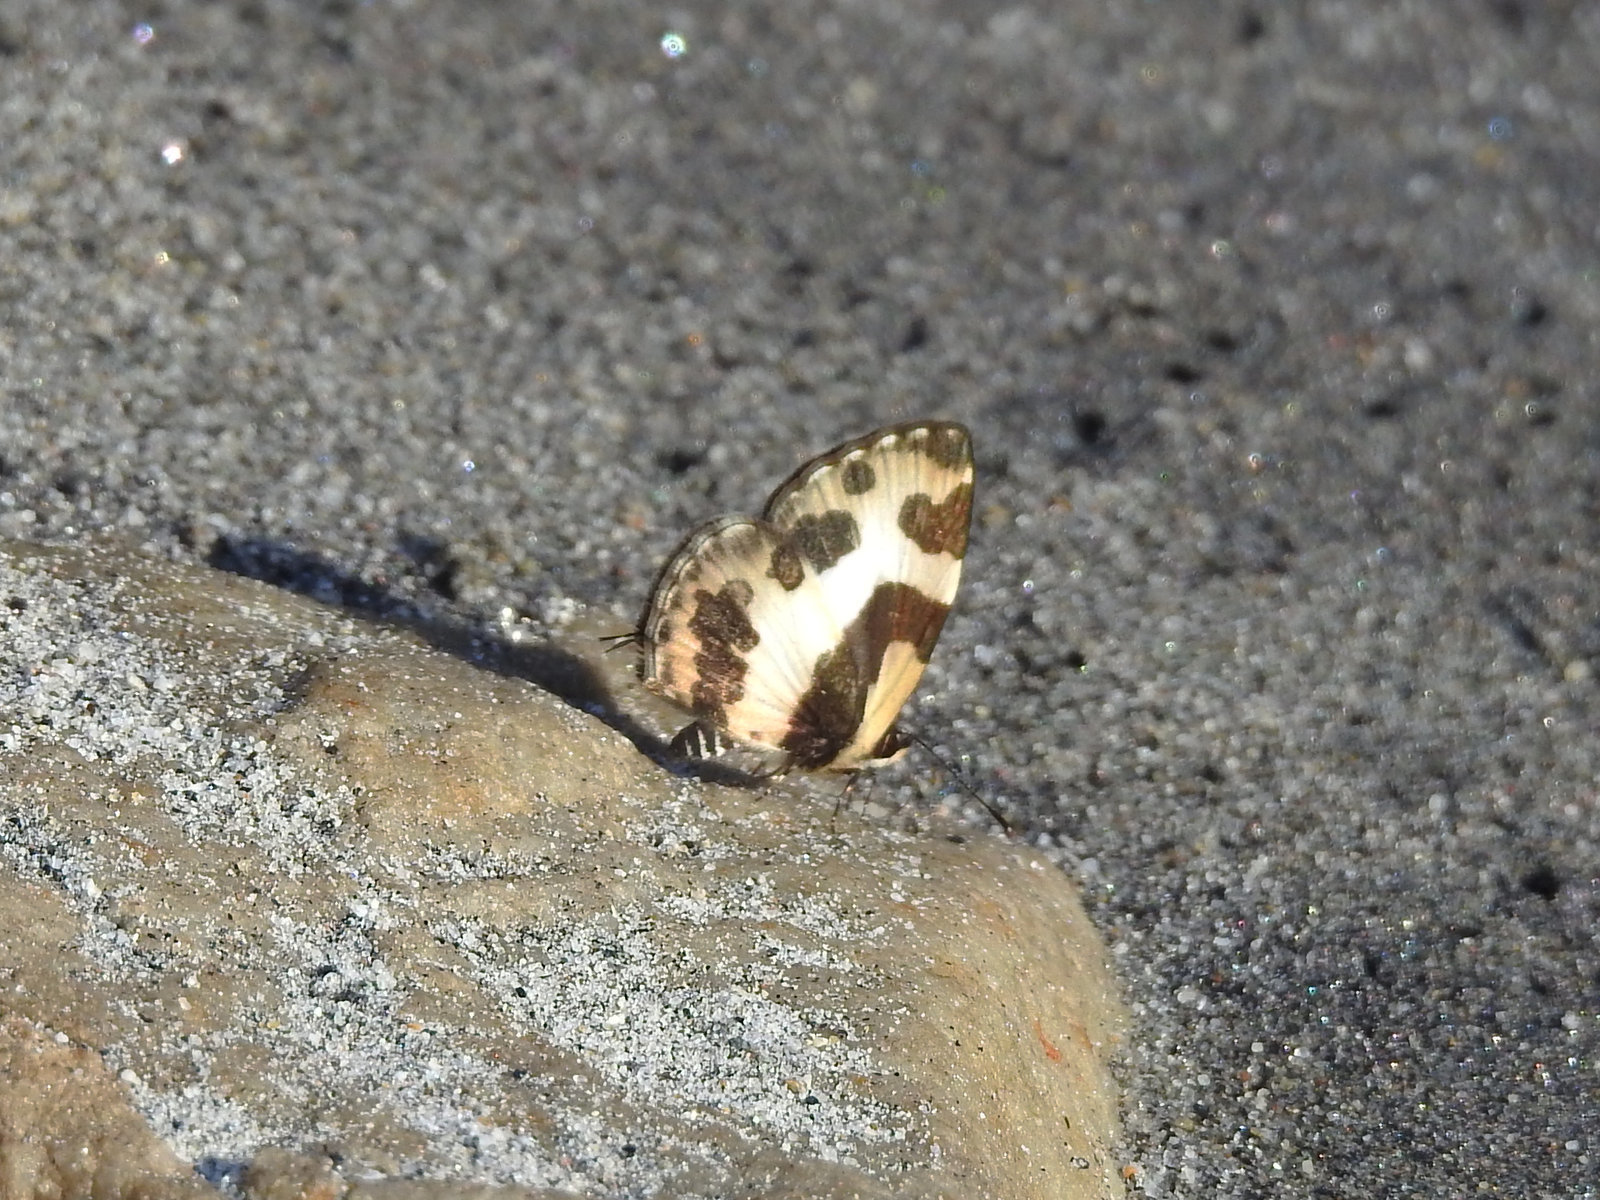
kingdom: Animalia
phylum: Arthropoda
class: Insecta
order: Lepidoptera
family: Lycaenidae
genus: Caleta
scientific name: Caleta elna
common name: Elbowed pierrot
